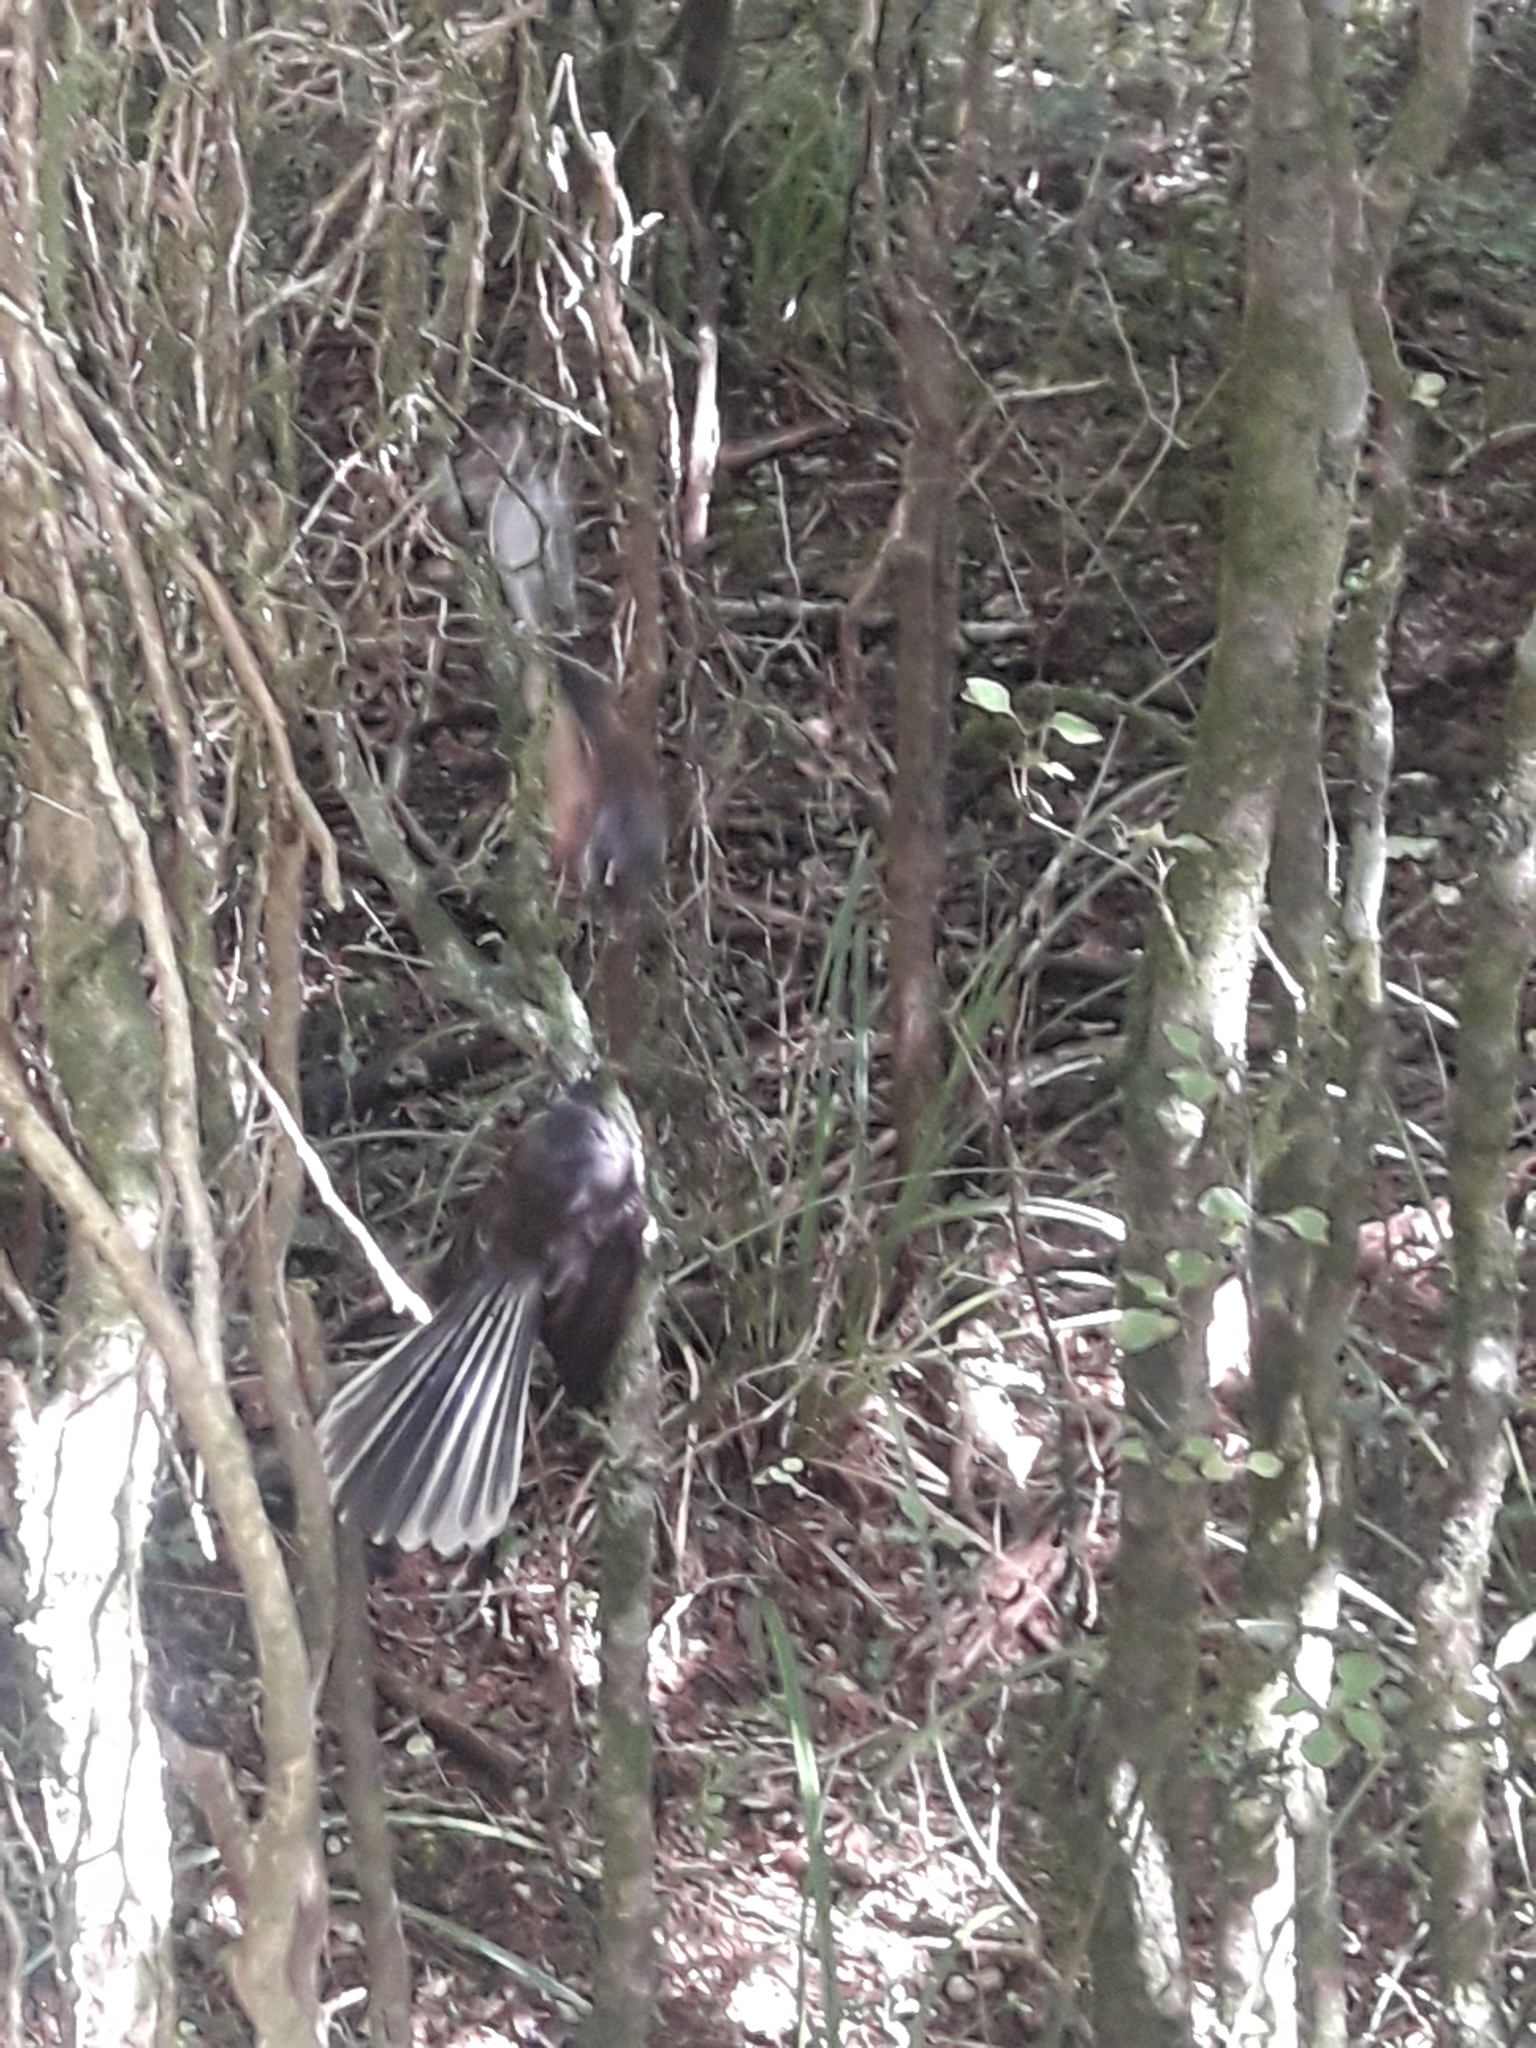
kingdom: Animalia
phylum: Chordata
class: Aves
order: Passeriformes
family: Rhipiduridae
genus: Rhipidura
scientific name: Rhipidura fuliginosa
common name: New zealand fantail
